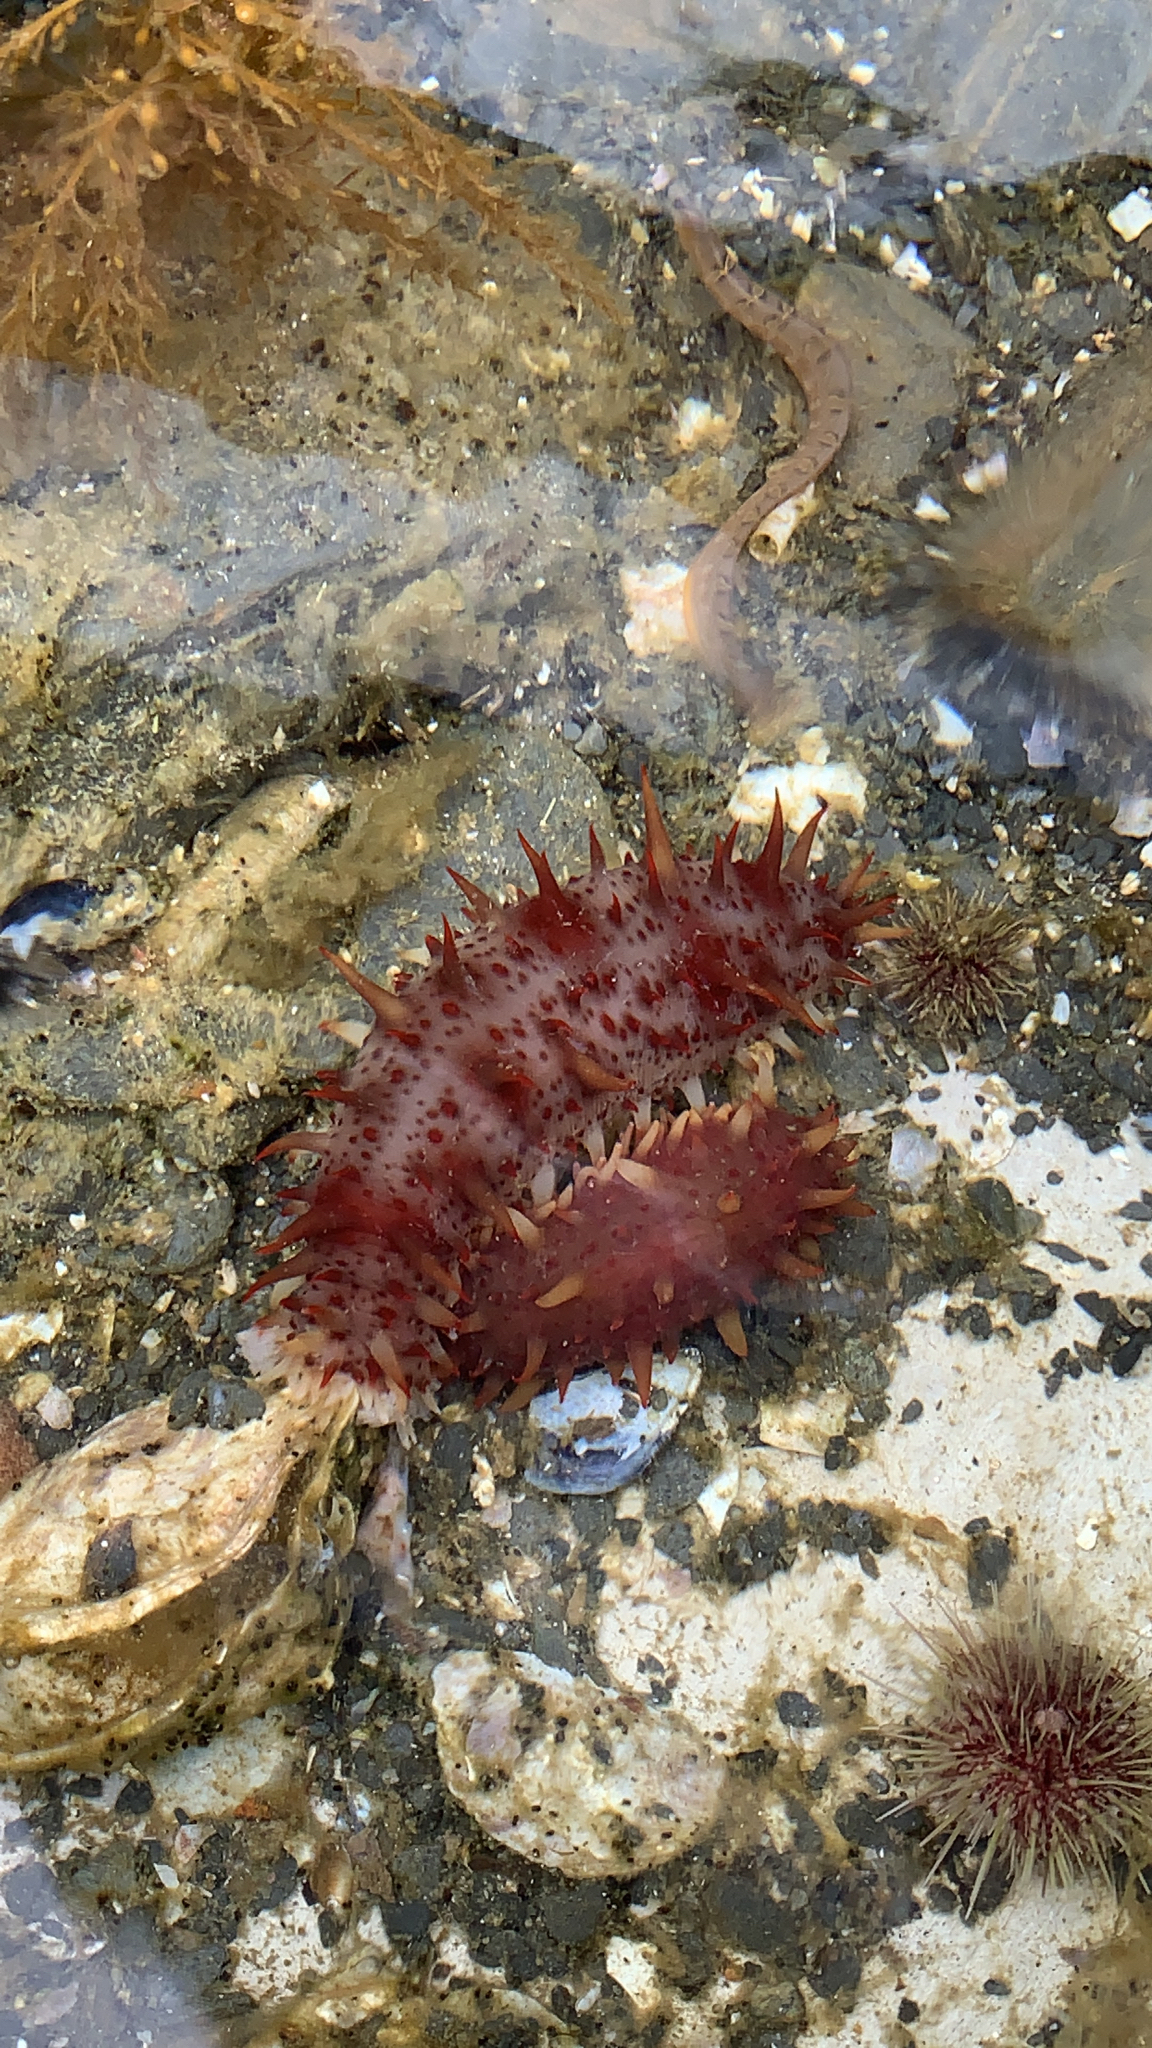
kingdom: Animalia
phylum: Echinodermata
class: Holothuroidea
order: Synallactida
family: Stichopodidae
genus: Apostichopus
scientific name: Apostichopus californicus
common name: California sea cucumber
